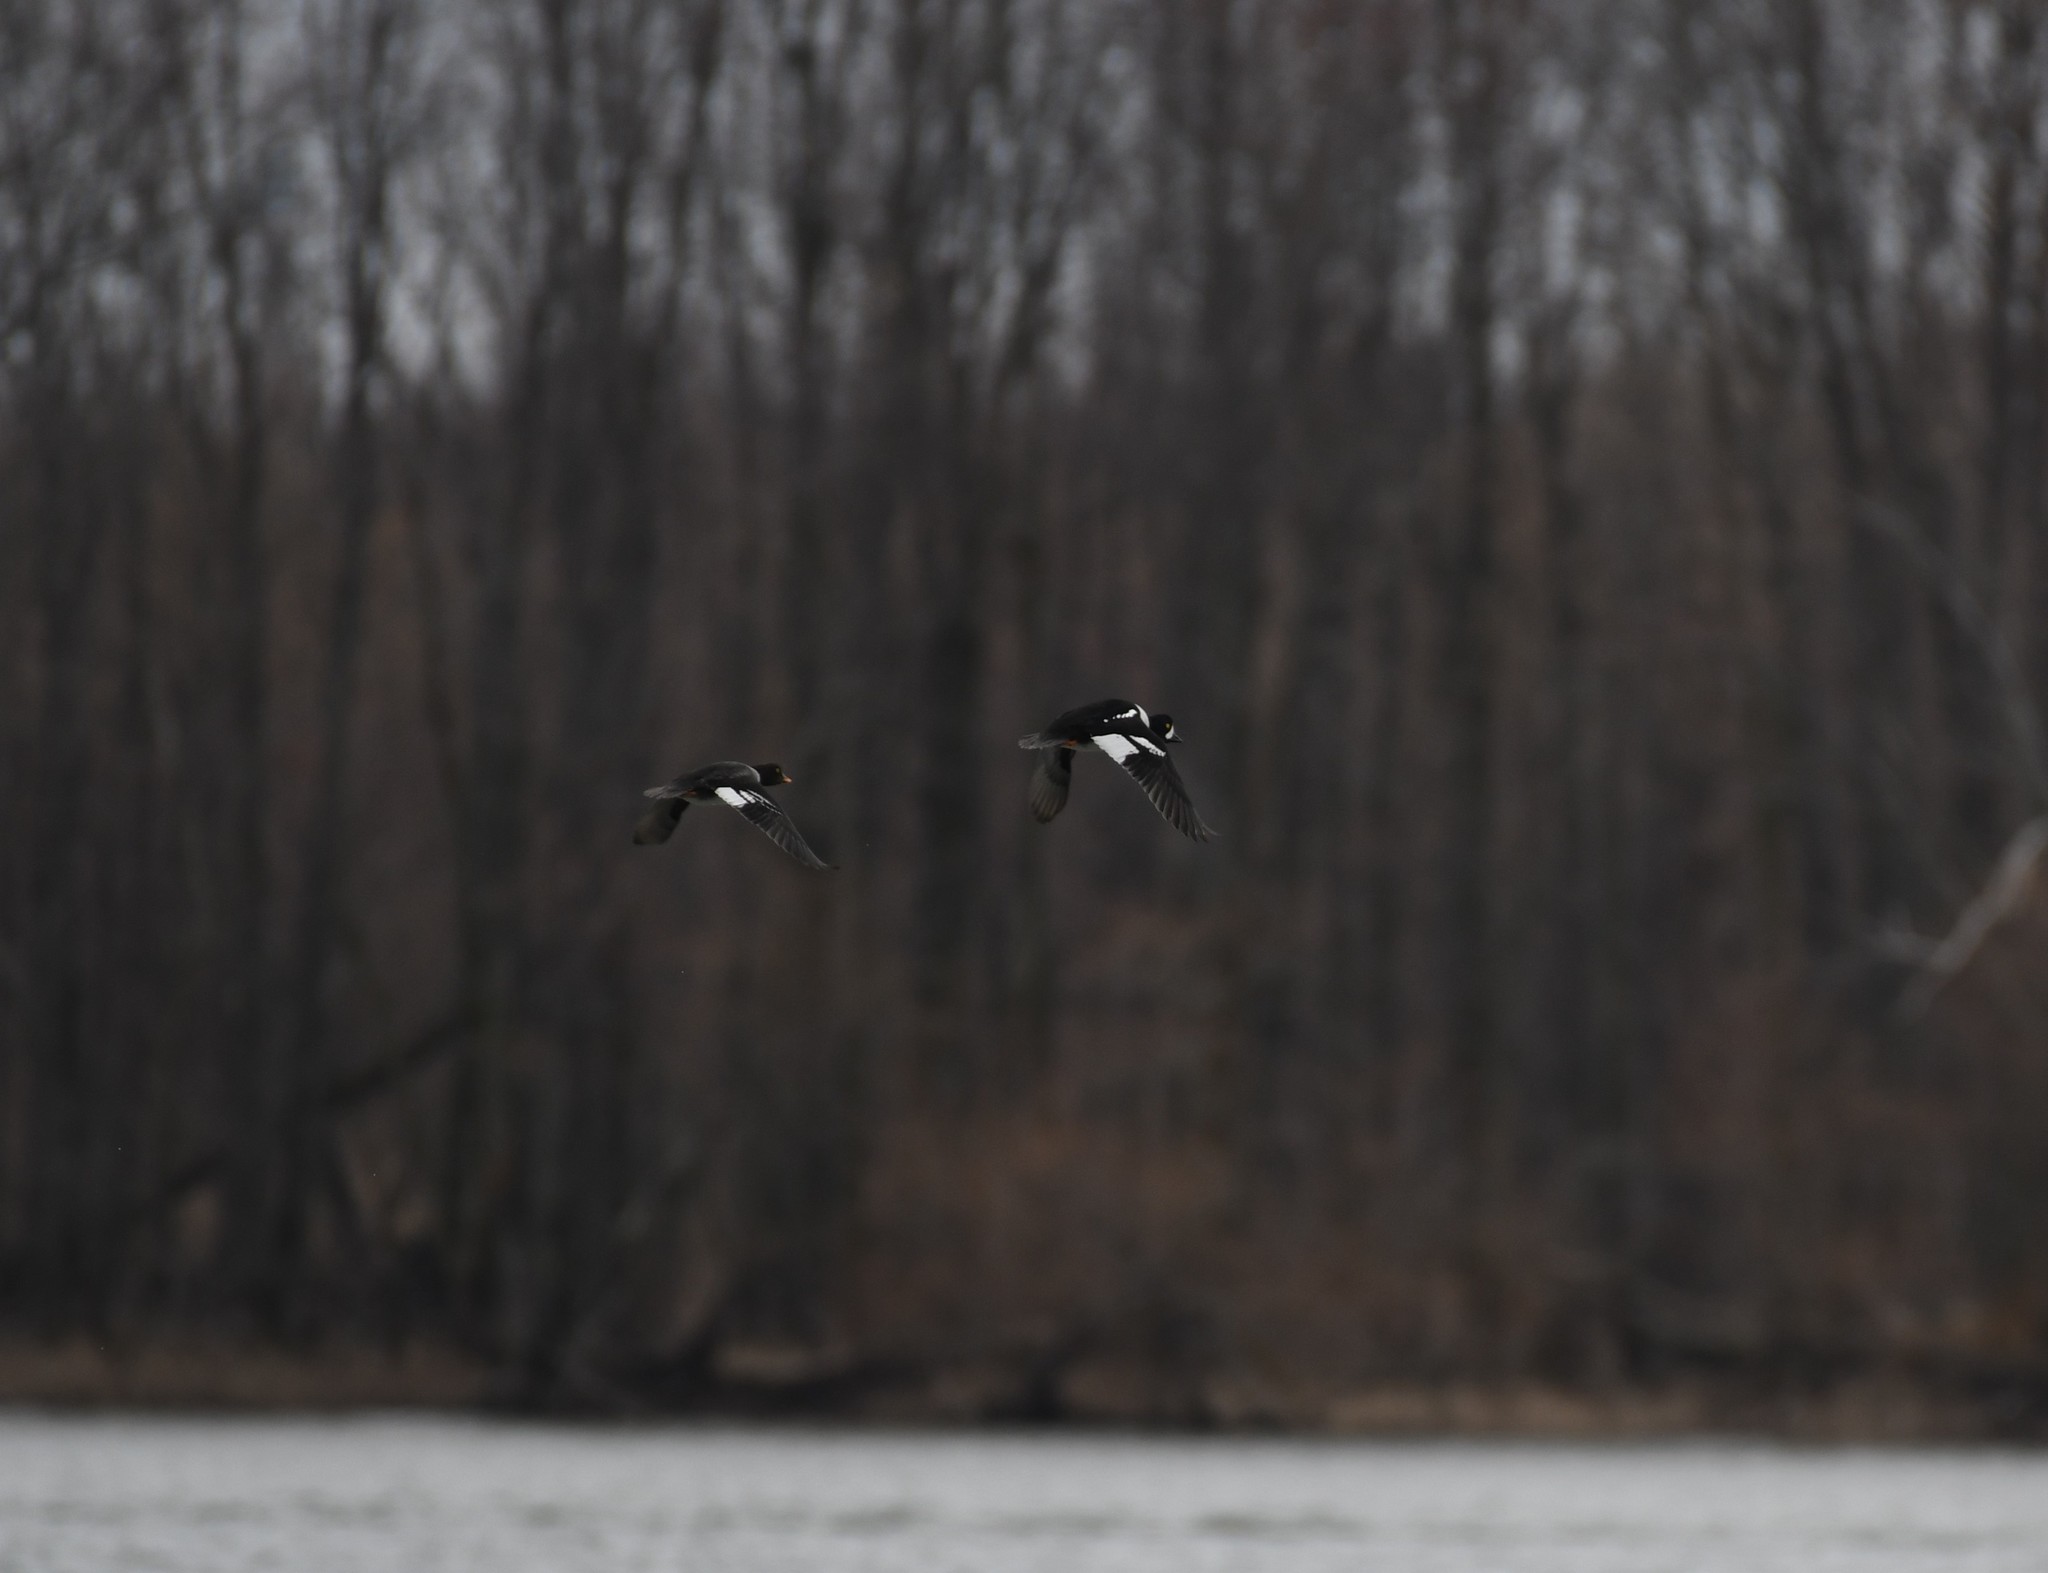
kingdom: Animalia
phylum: Chordata
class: Aves
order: Anseriformes
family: Anatidae
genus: Bucephala
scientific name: Bucephala islandica
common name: Barrow's goldeneye
